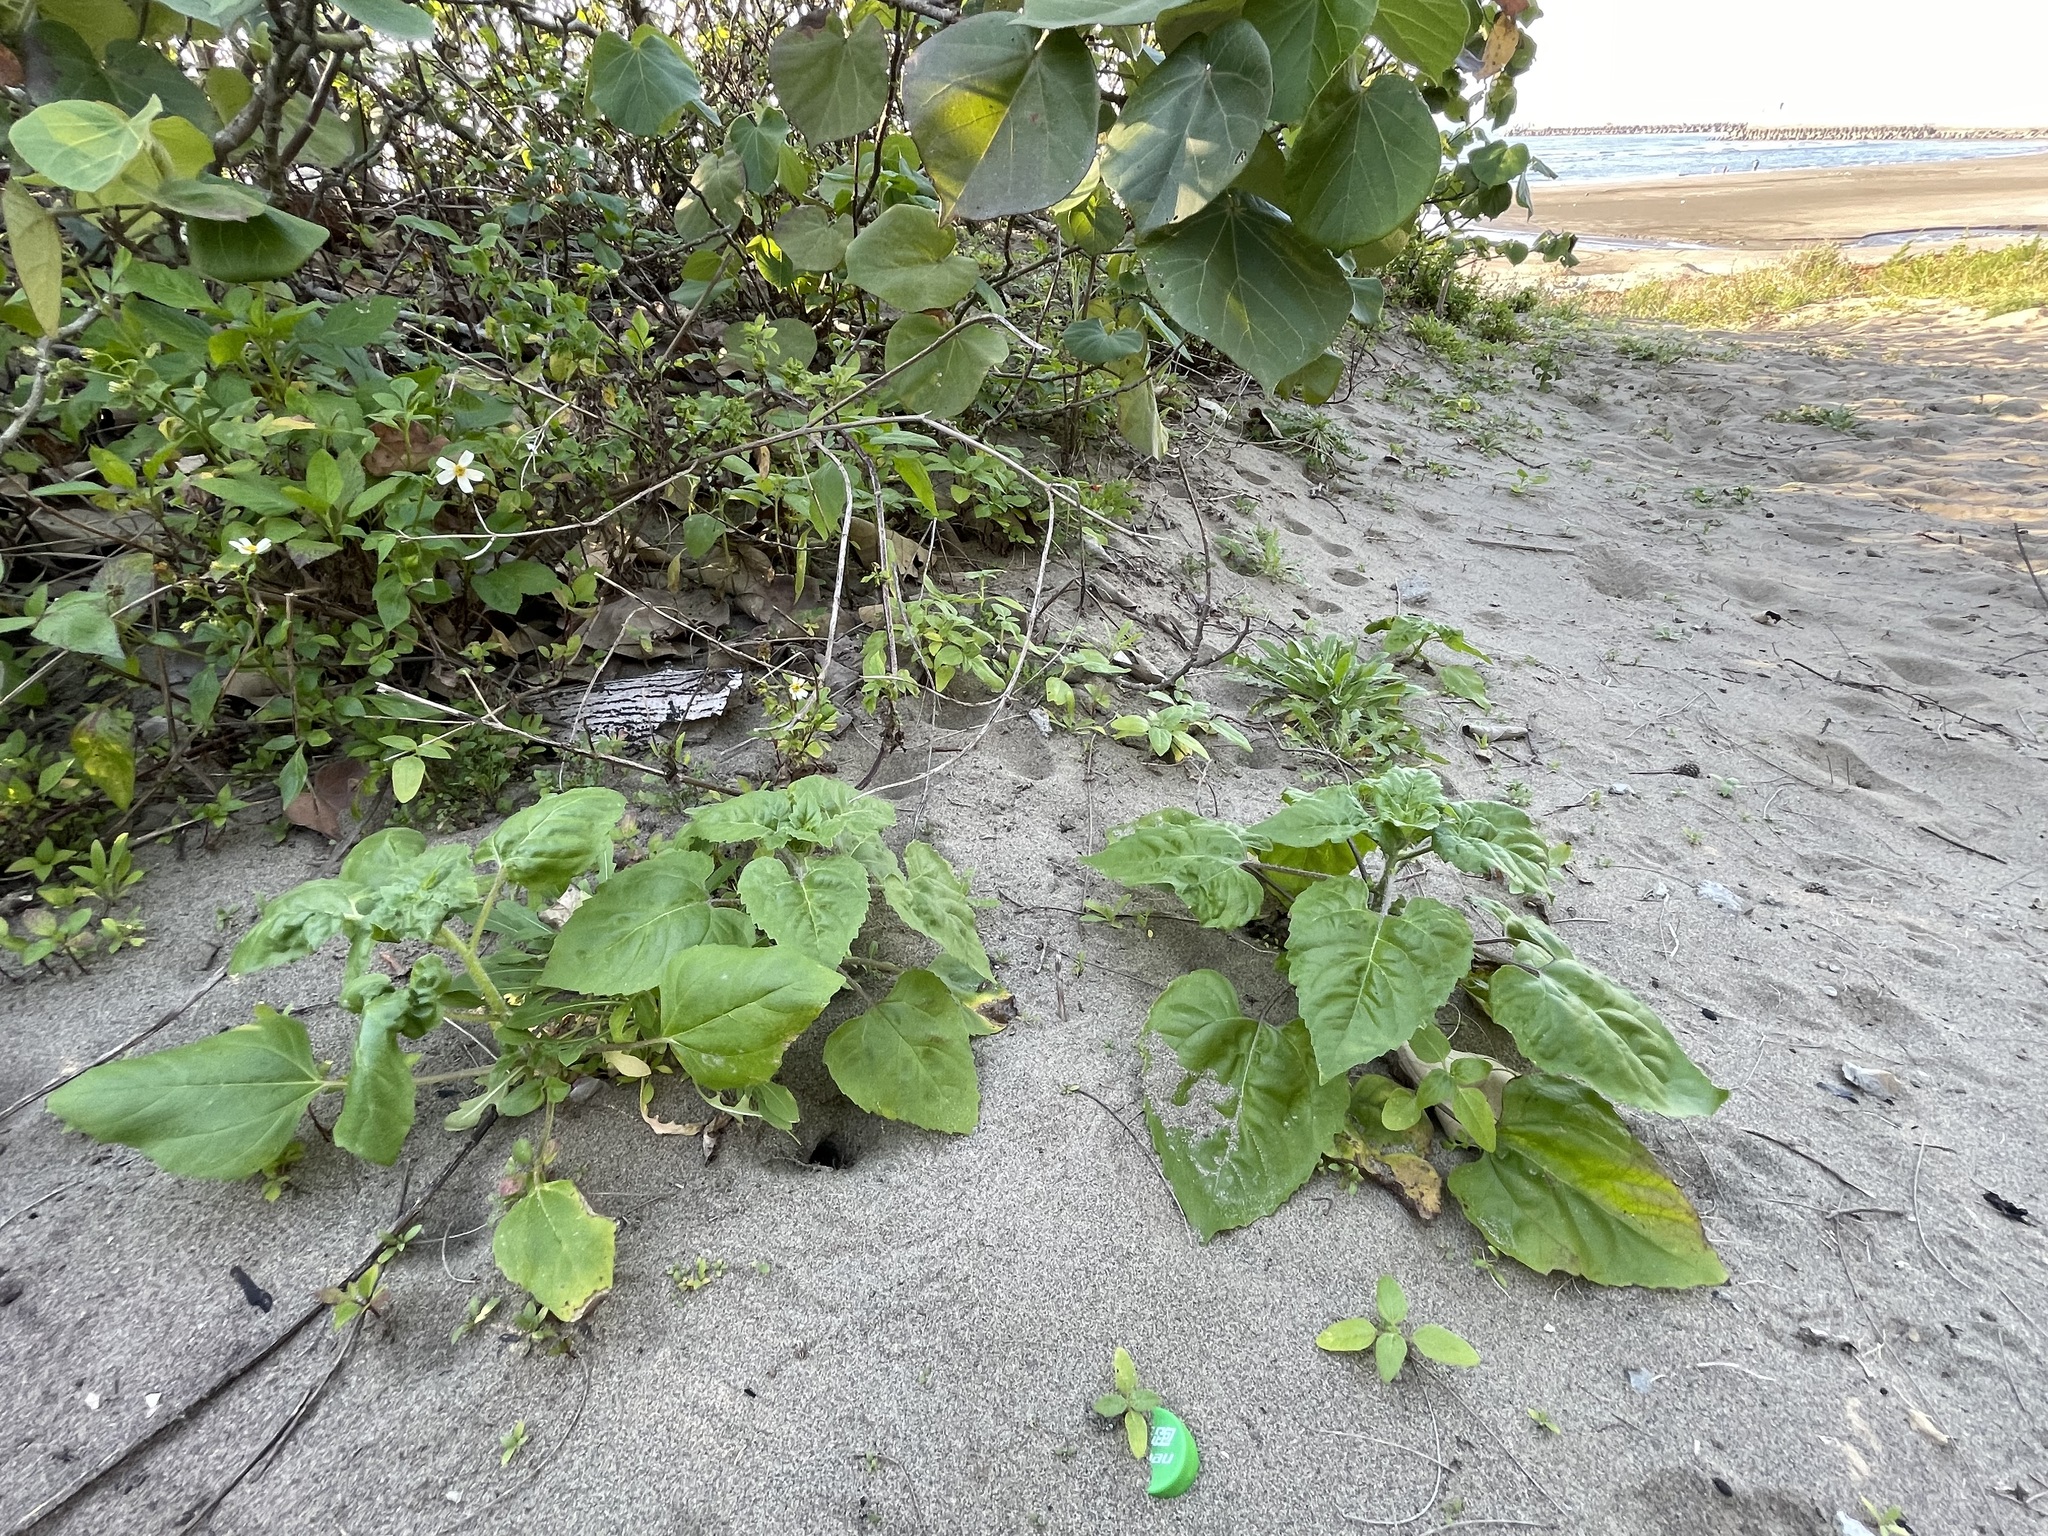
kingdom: Plantae
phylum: Tracheophyta
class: Magnoliopsida
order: Asterales
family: Asteraceae
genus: Helianthus
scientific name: Helianthus debilis
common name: Weak sunflower
